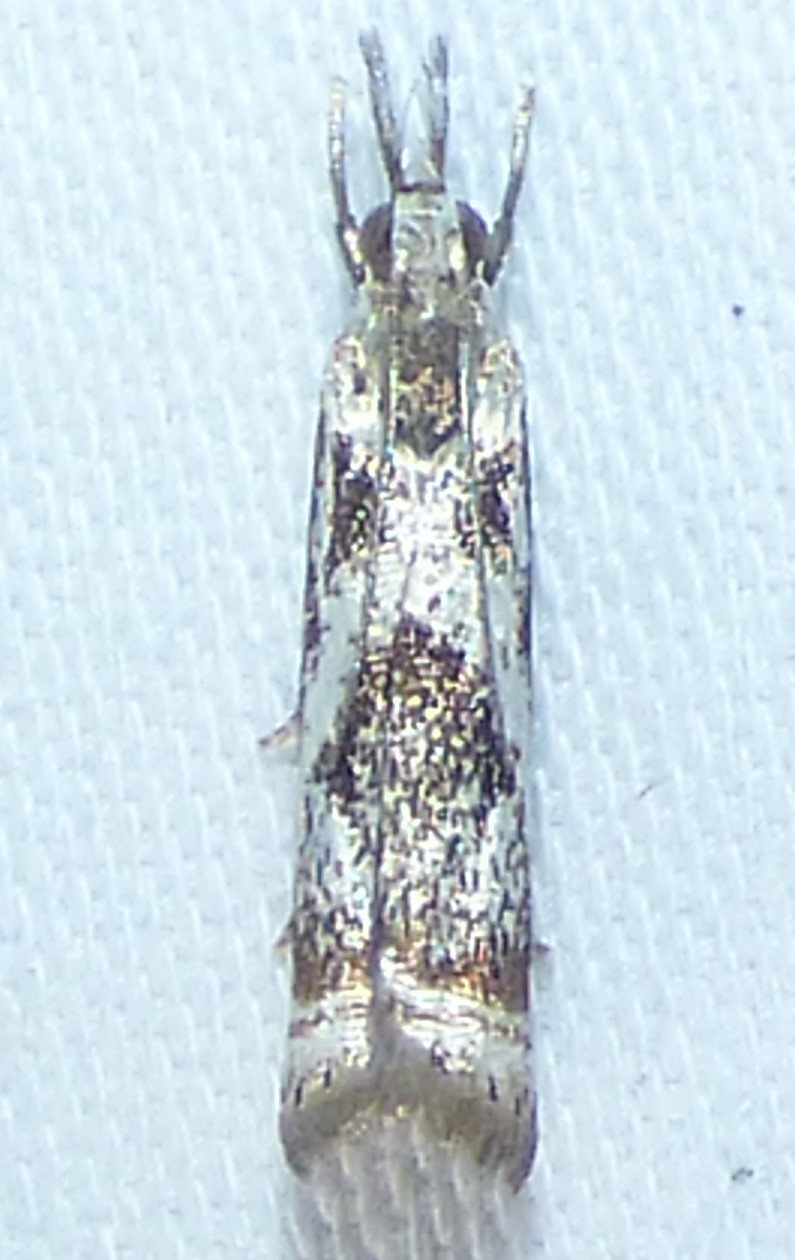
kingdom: Animalia
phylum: Arthropoda
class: Insecta
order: Lepidoptera
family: Crambidae
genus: Microcrambus
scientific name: Microcrambus immunellus
